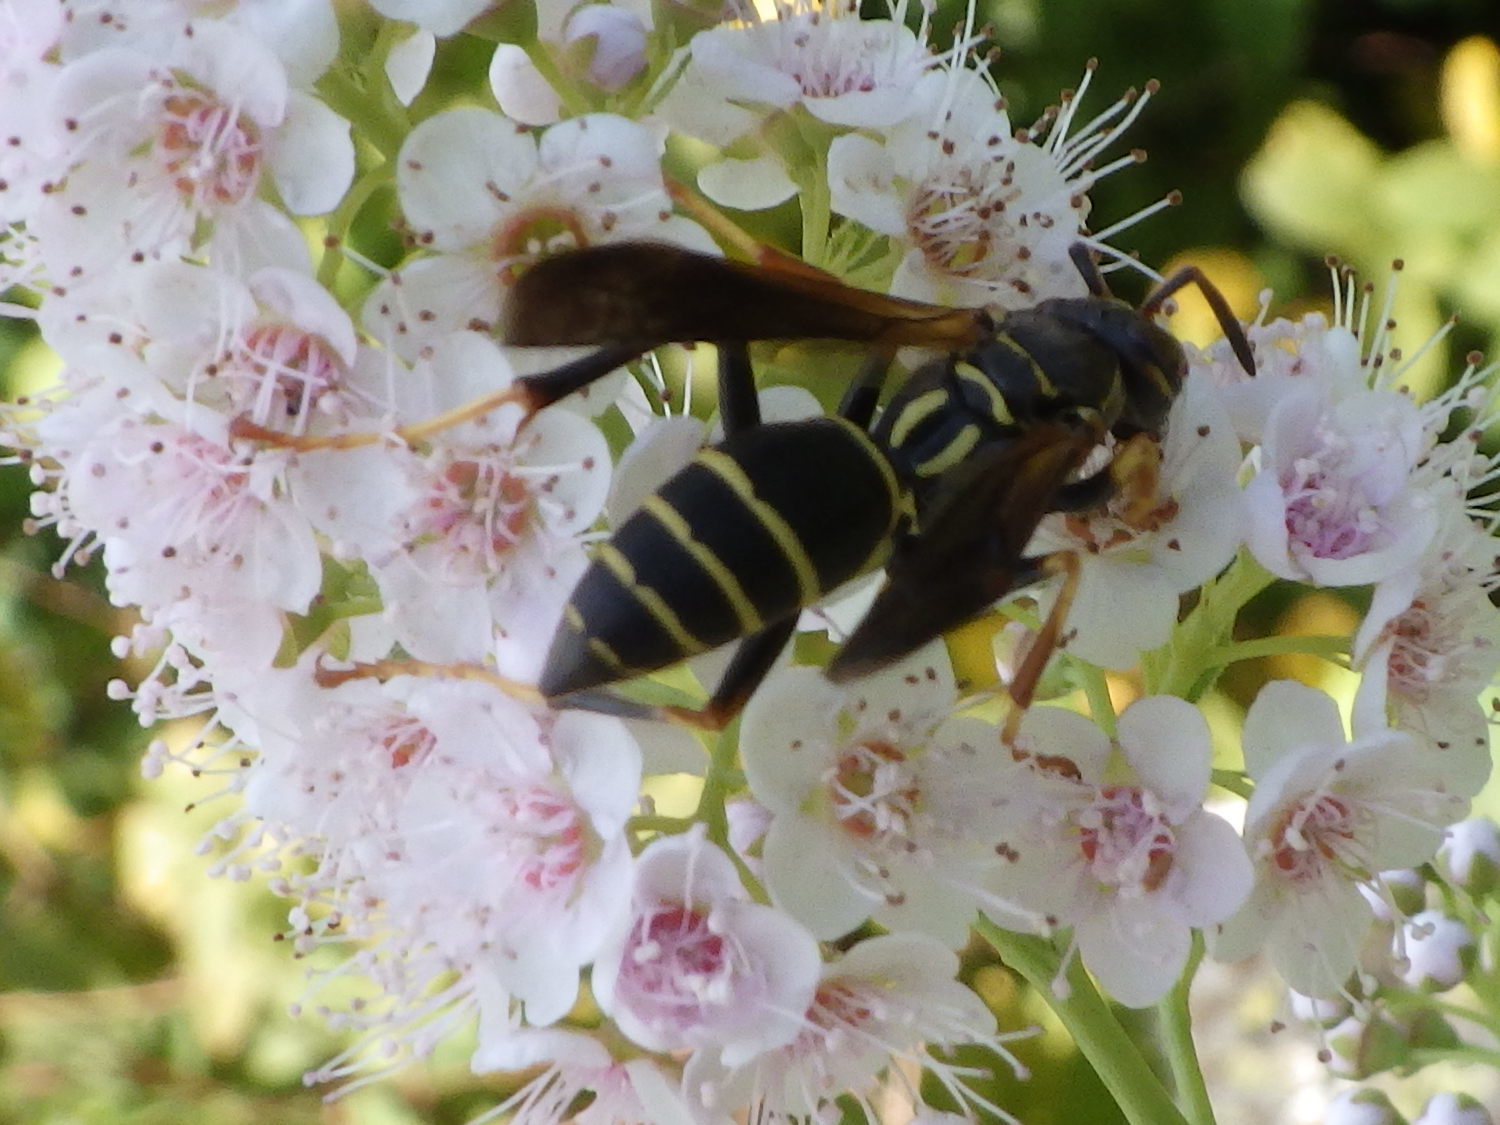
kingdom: Animalia
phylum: Arthropoda
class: Insecta
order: Hymenoptera
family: Eumenidae
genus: Polistes
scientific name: Polistes fuscatus
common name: Dark paper wasp
